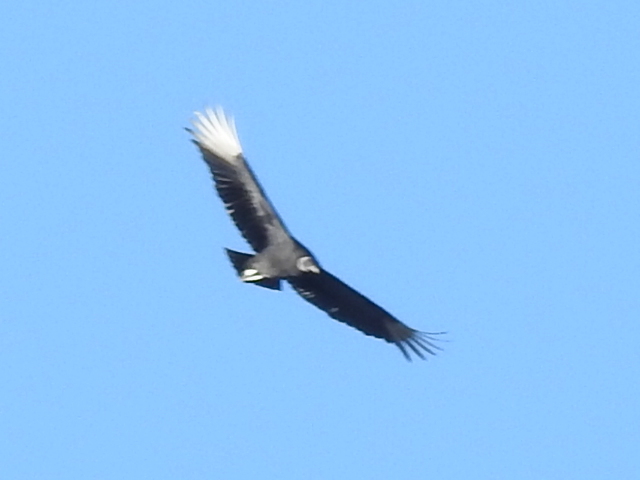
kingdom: Animalia
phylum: Chordata
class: Aves
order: Accipitriformes
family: Cathartidae
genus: Coragyps
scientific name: Coragyps atratus
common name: Black vulture
